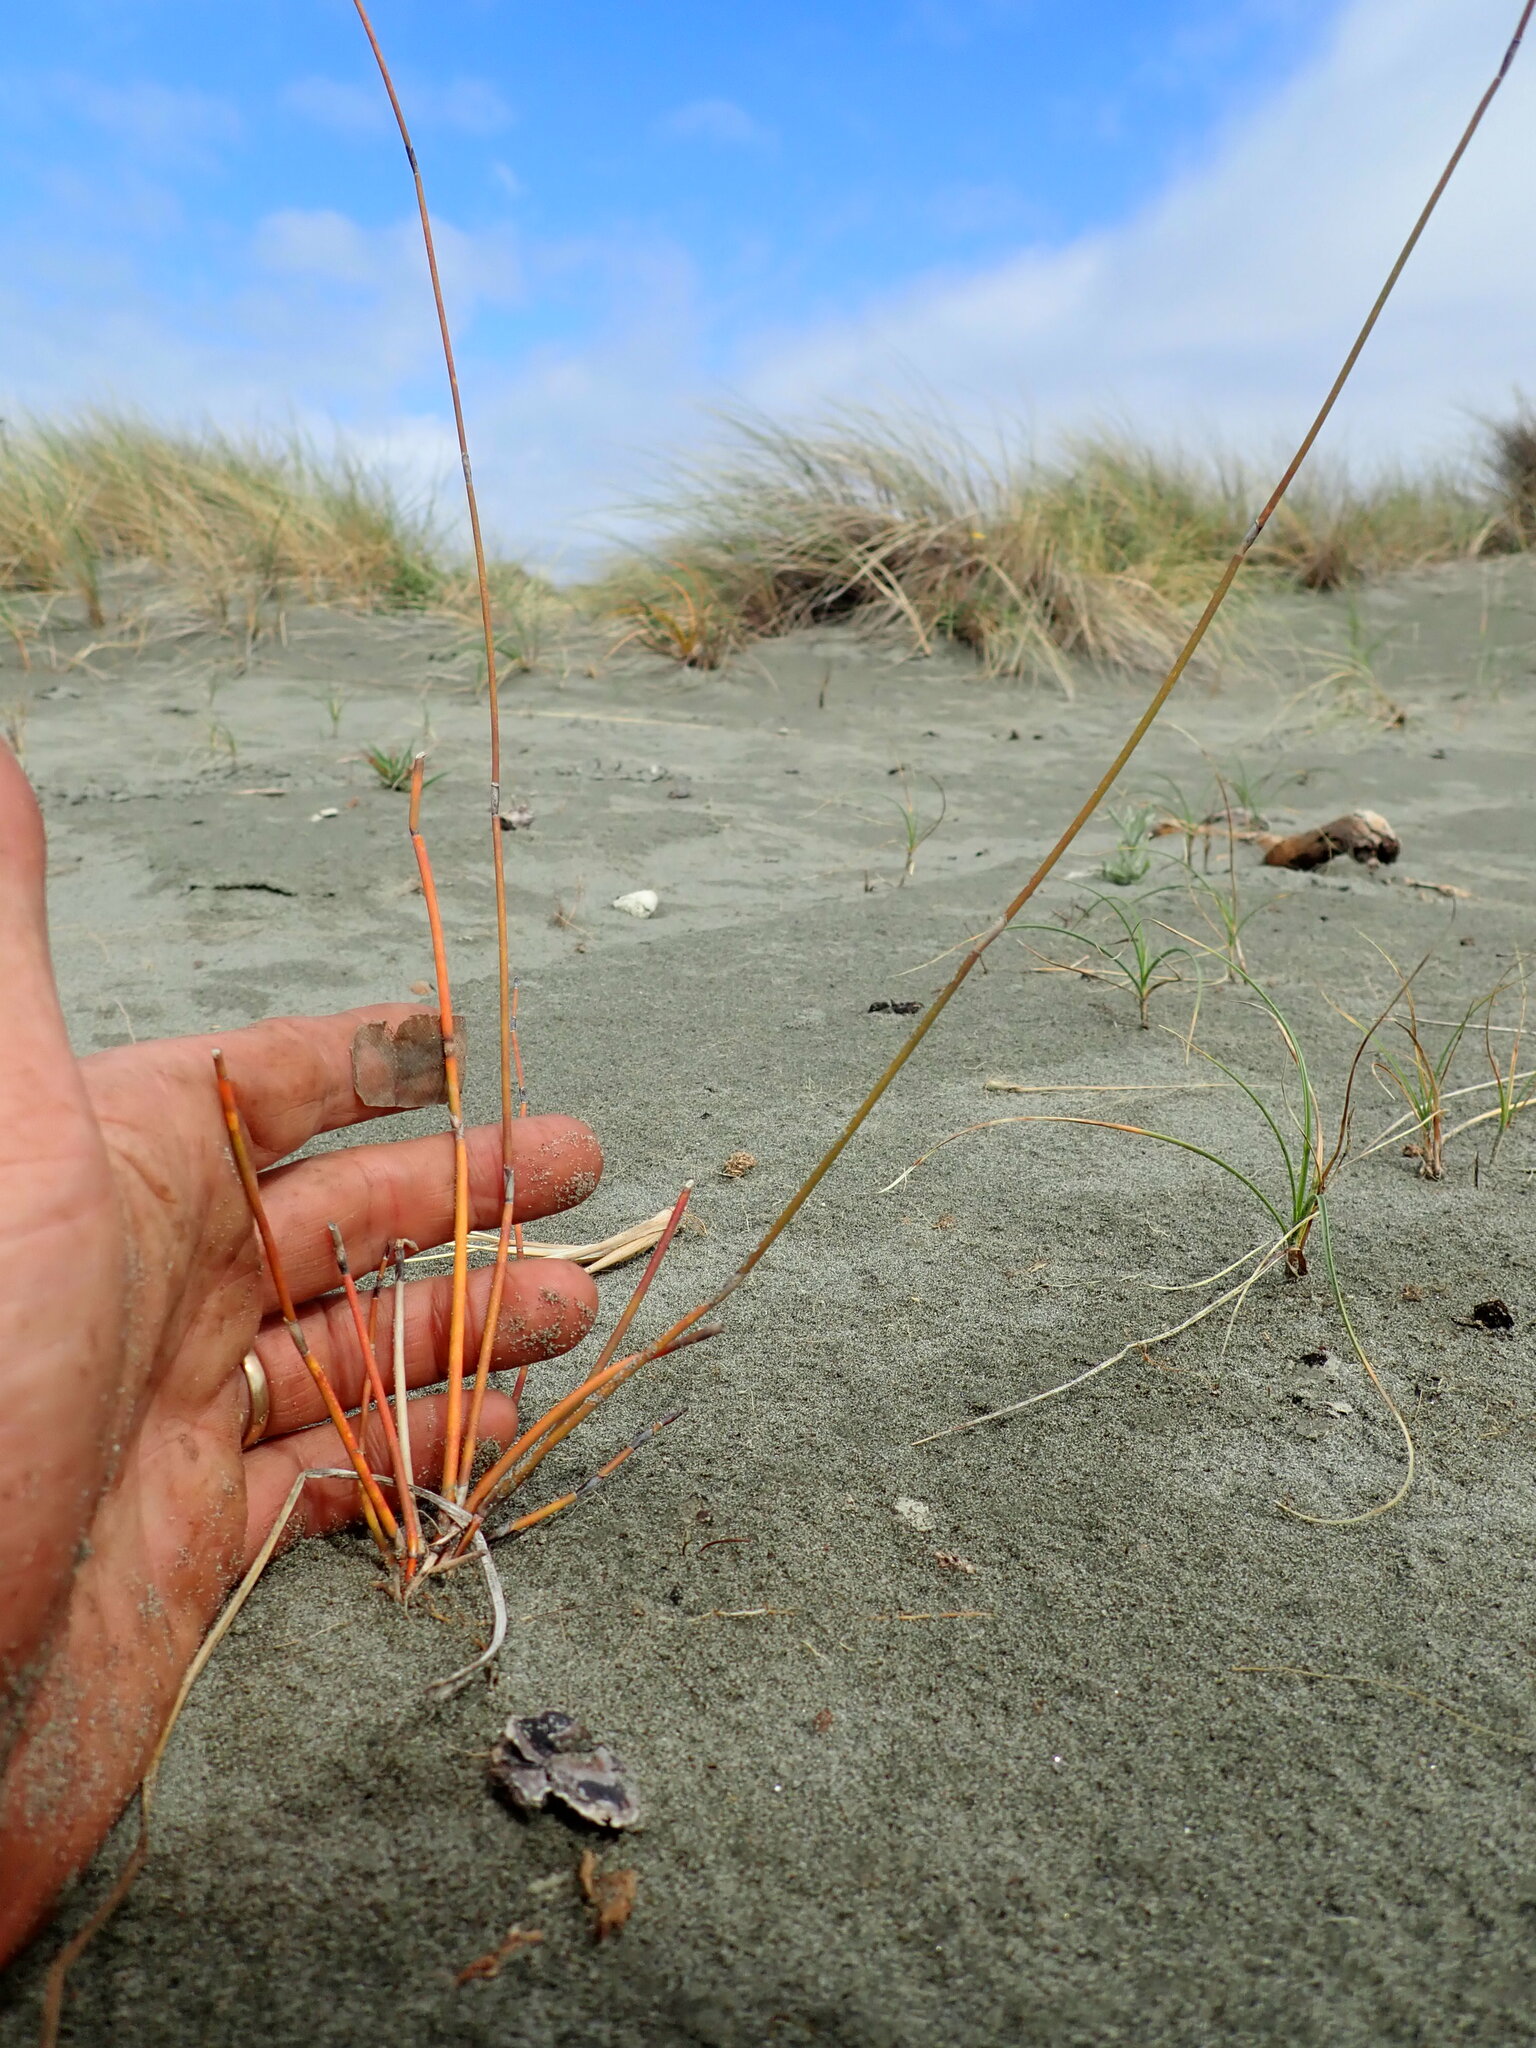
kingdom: Plantae
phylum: Tracheophyta
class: Liliopsida
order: Poales
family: Restionaceae
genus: Apodasmia
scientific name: Apodasmia similis
